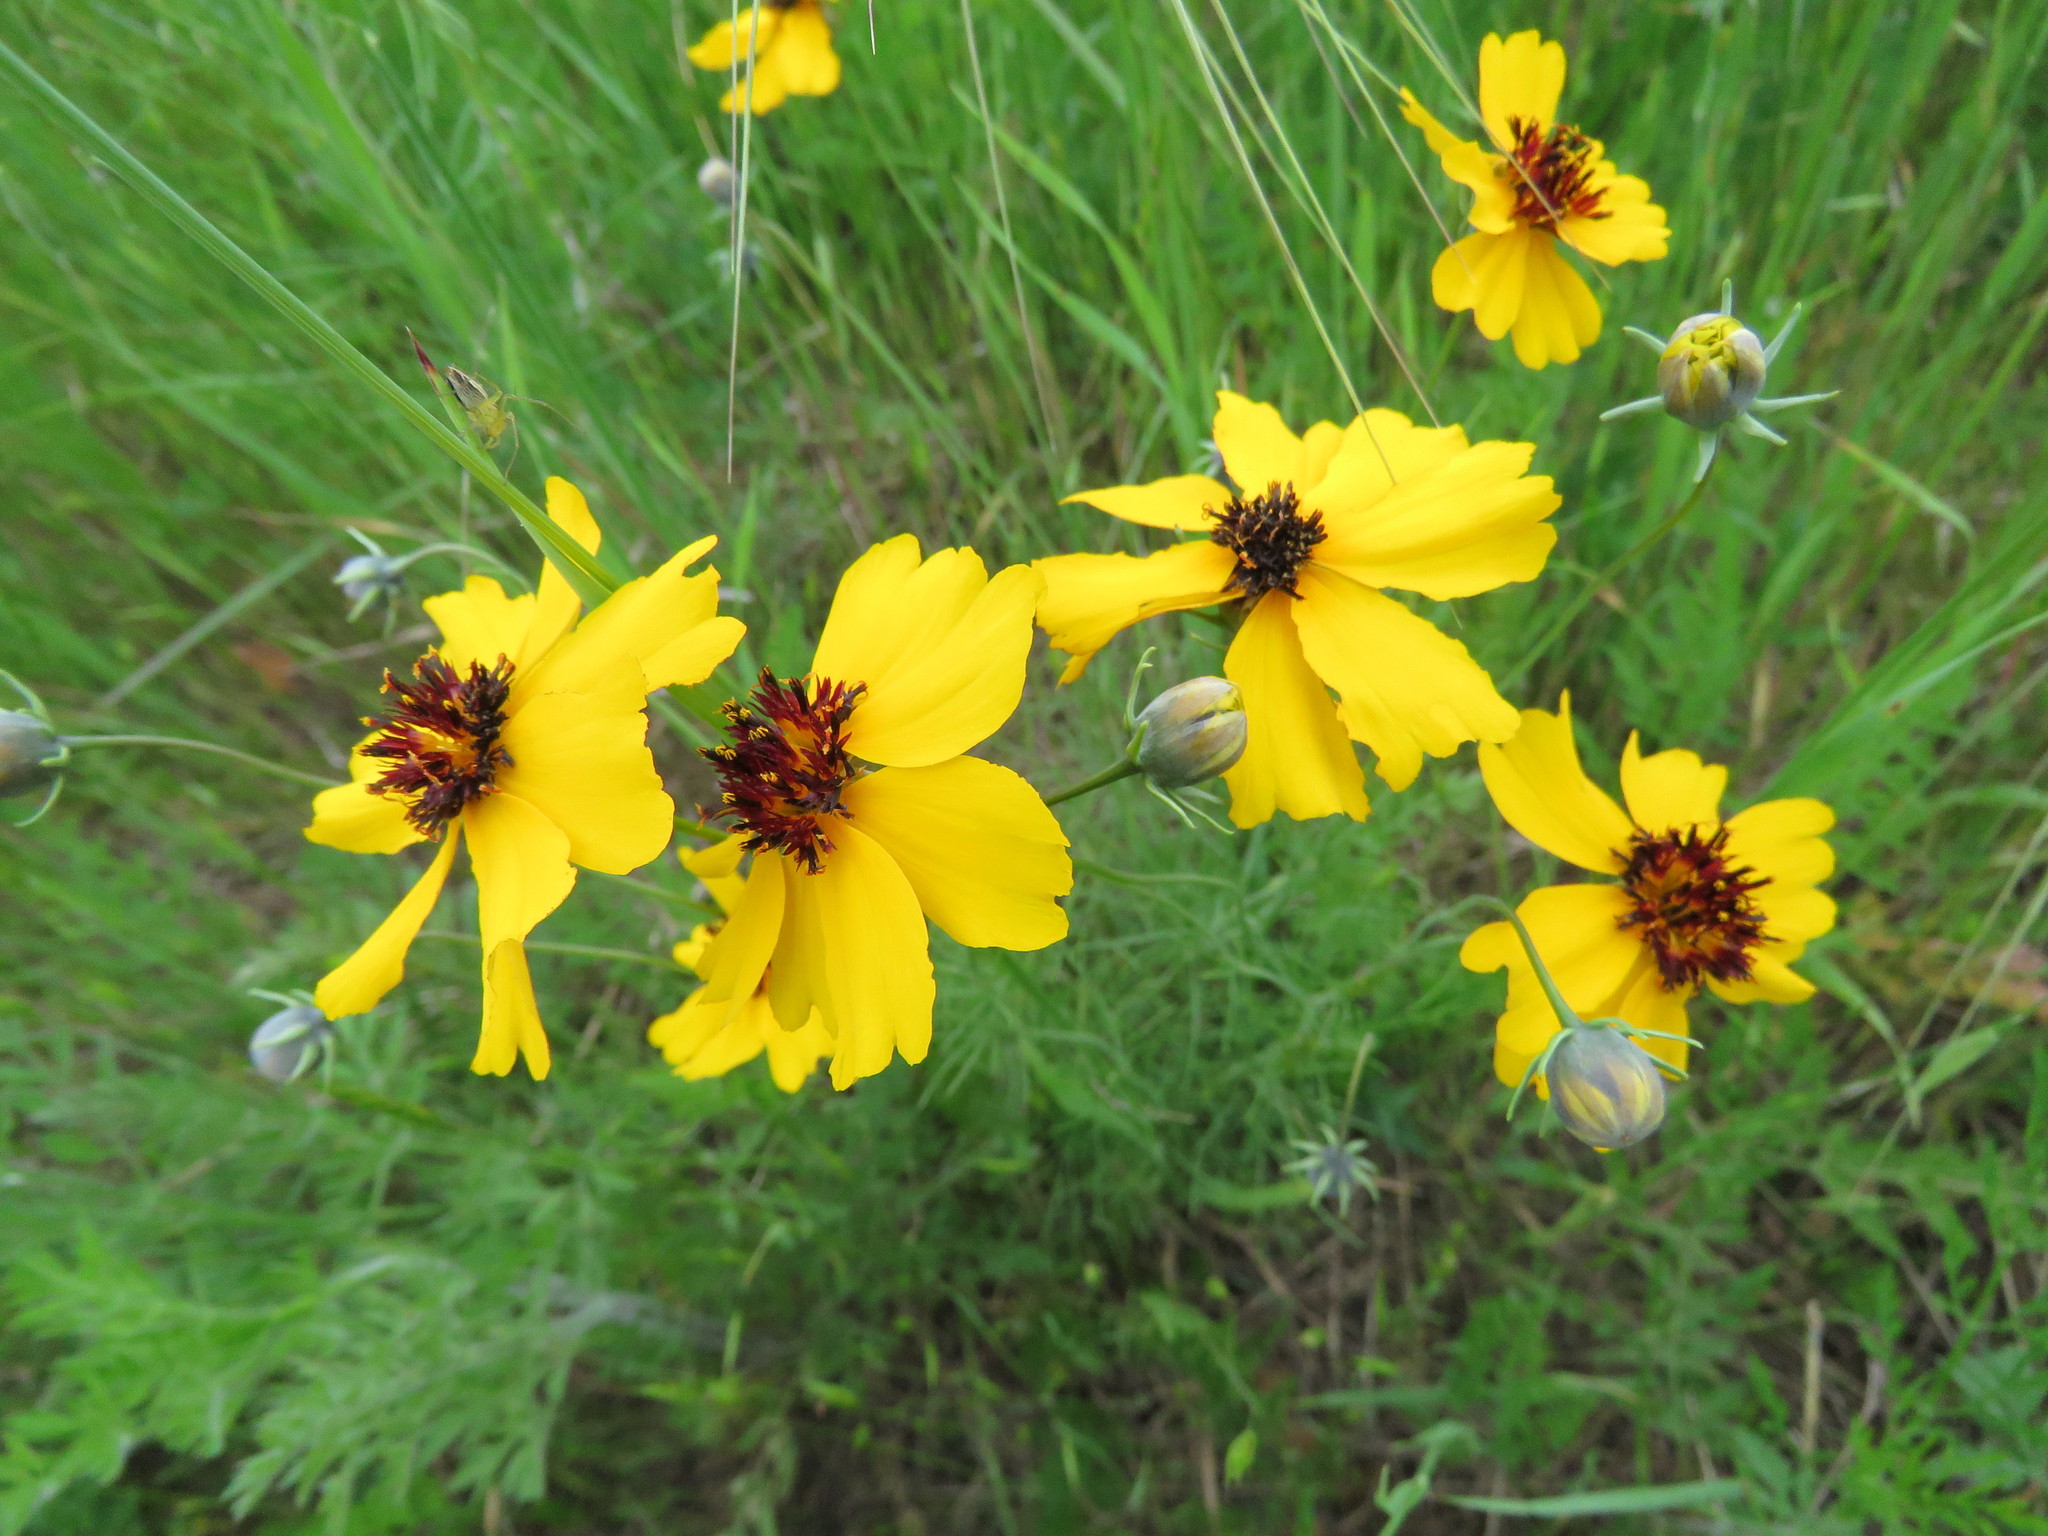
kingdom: Plantae
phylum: Tracheophyta
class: Magnoliopsida
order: Asterales
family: Asteraceae
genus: Thelesperma
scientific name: Thelesperma filifolium
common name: Stiff greenthread
